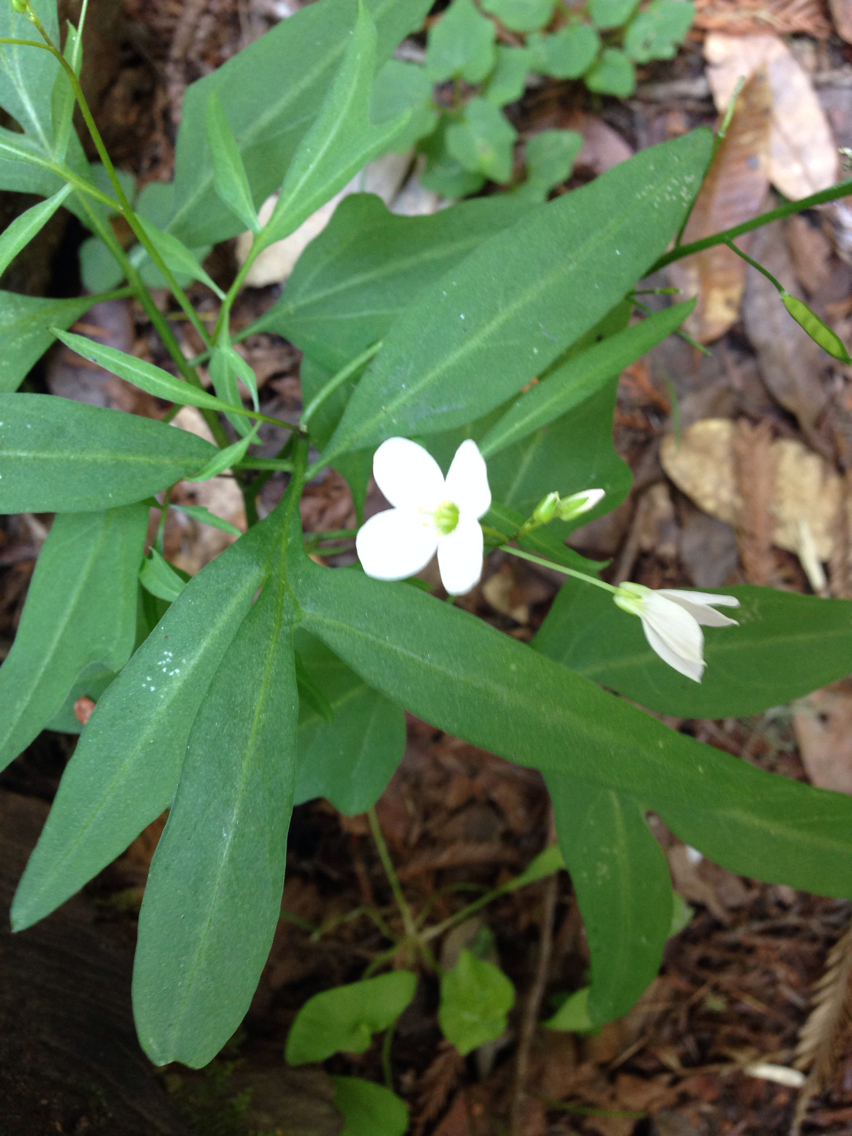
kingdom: Plantae
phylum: Tracheophyta
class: Magnoliopsida
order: Brassicales
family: Brassicaceae
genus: Cardamine
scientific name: Cardamine californica
